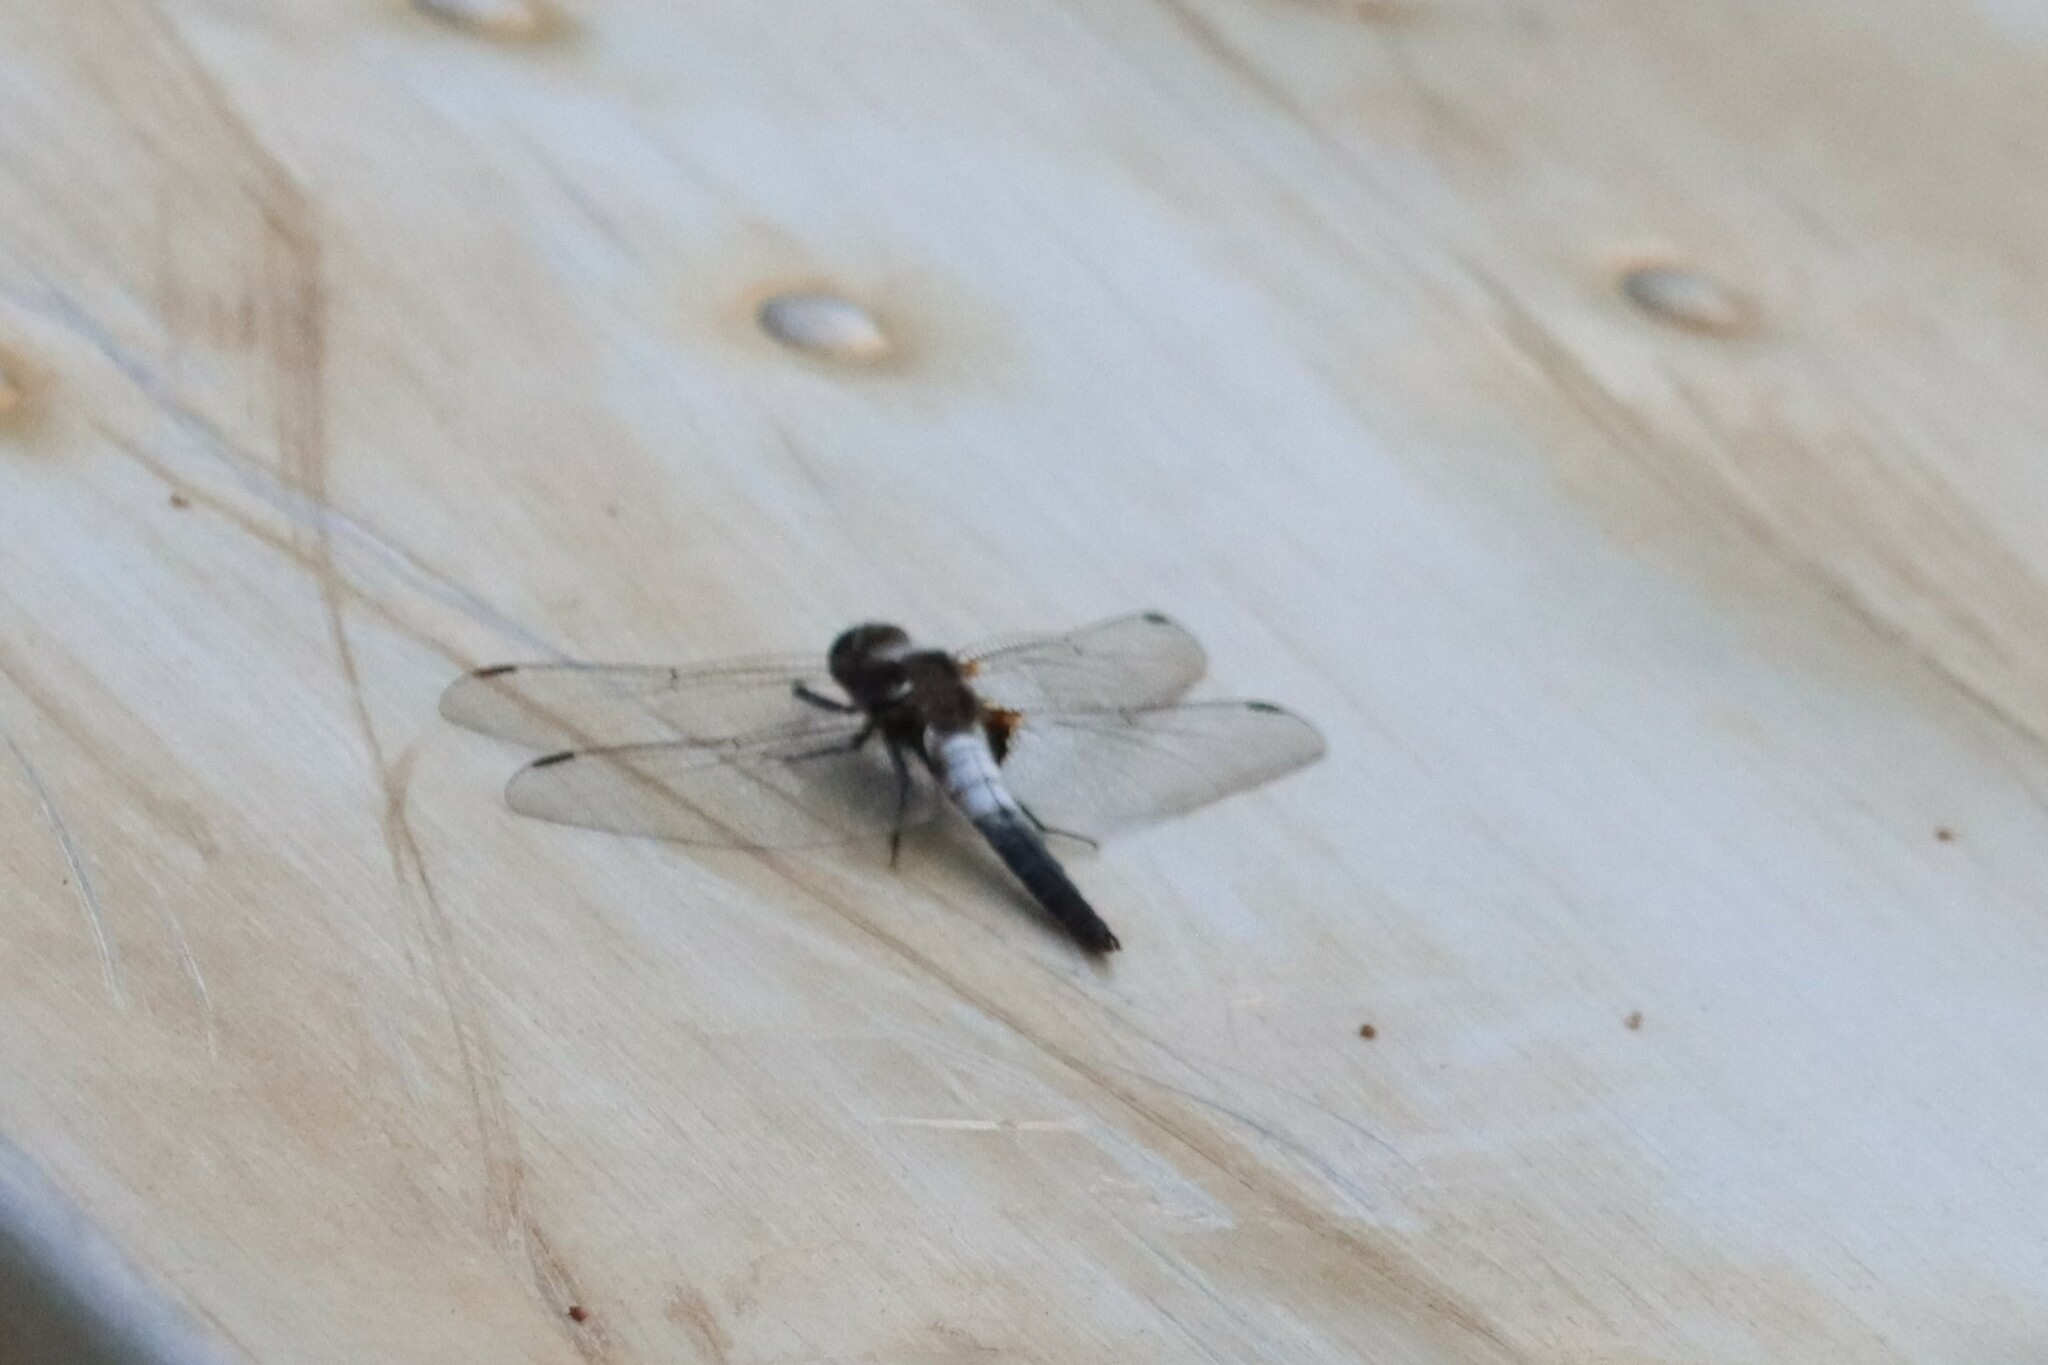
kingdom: Animalia
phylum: Arthropoda
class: Insecta
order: Odonata
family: Libellulidae
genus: Ladona
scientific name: Ladona julia
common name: Chalk-fronted corporal
